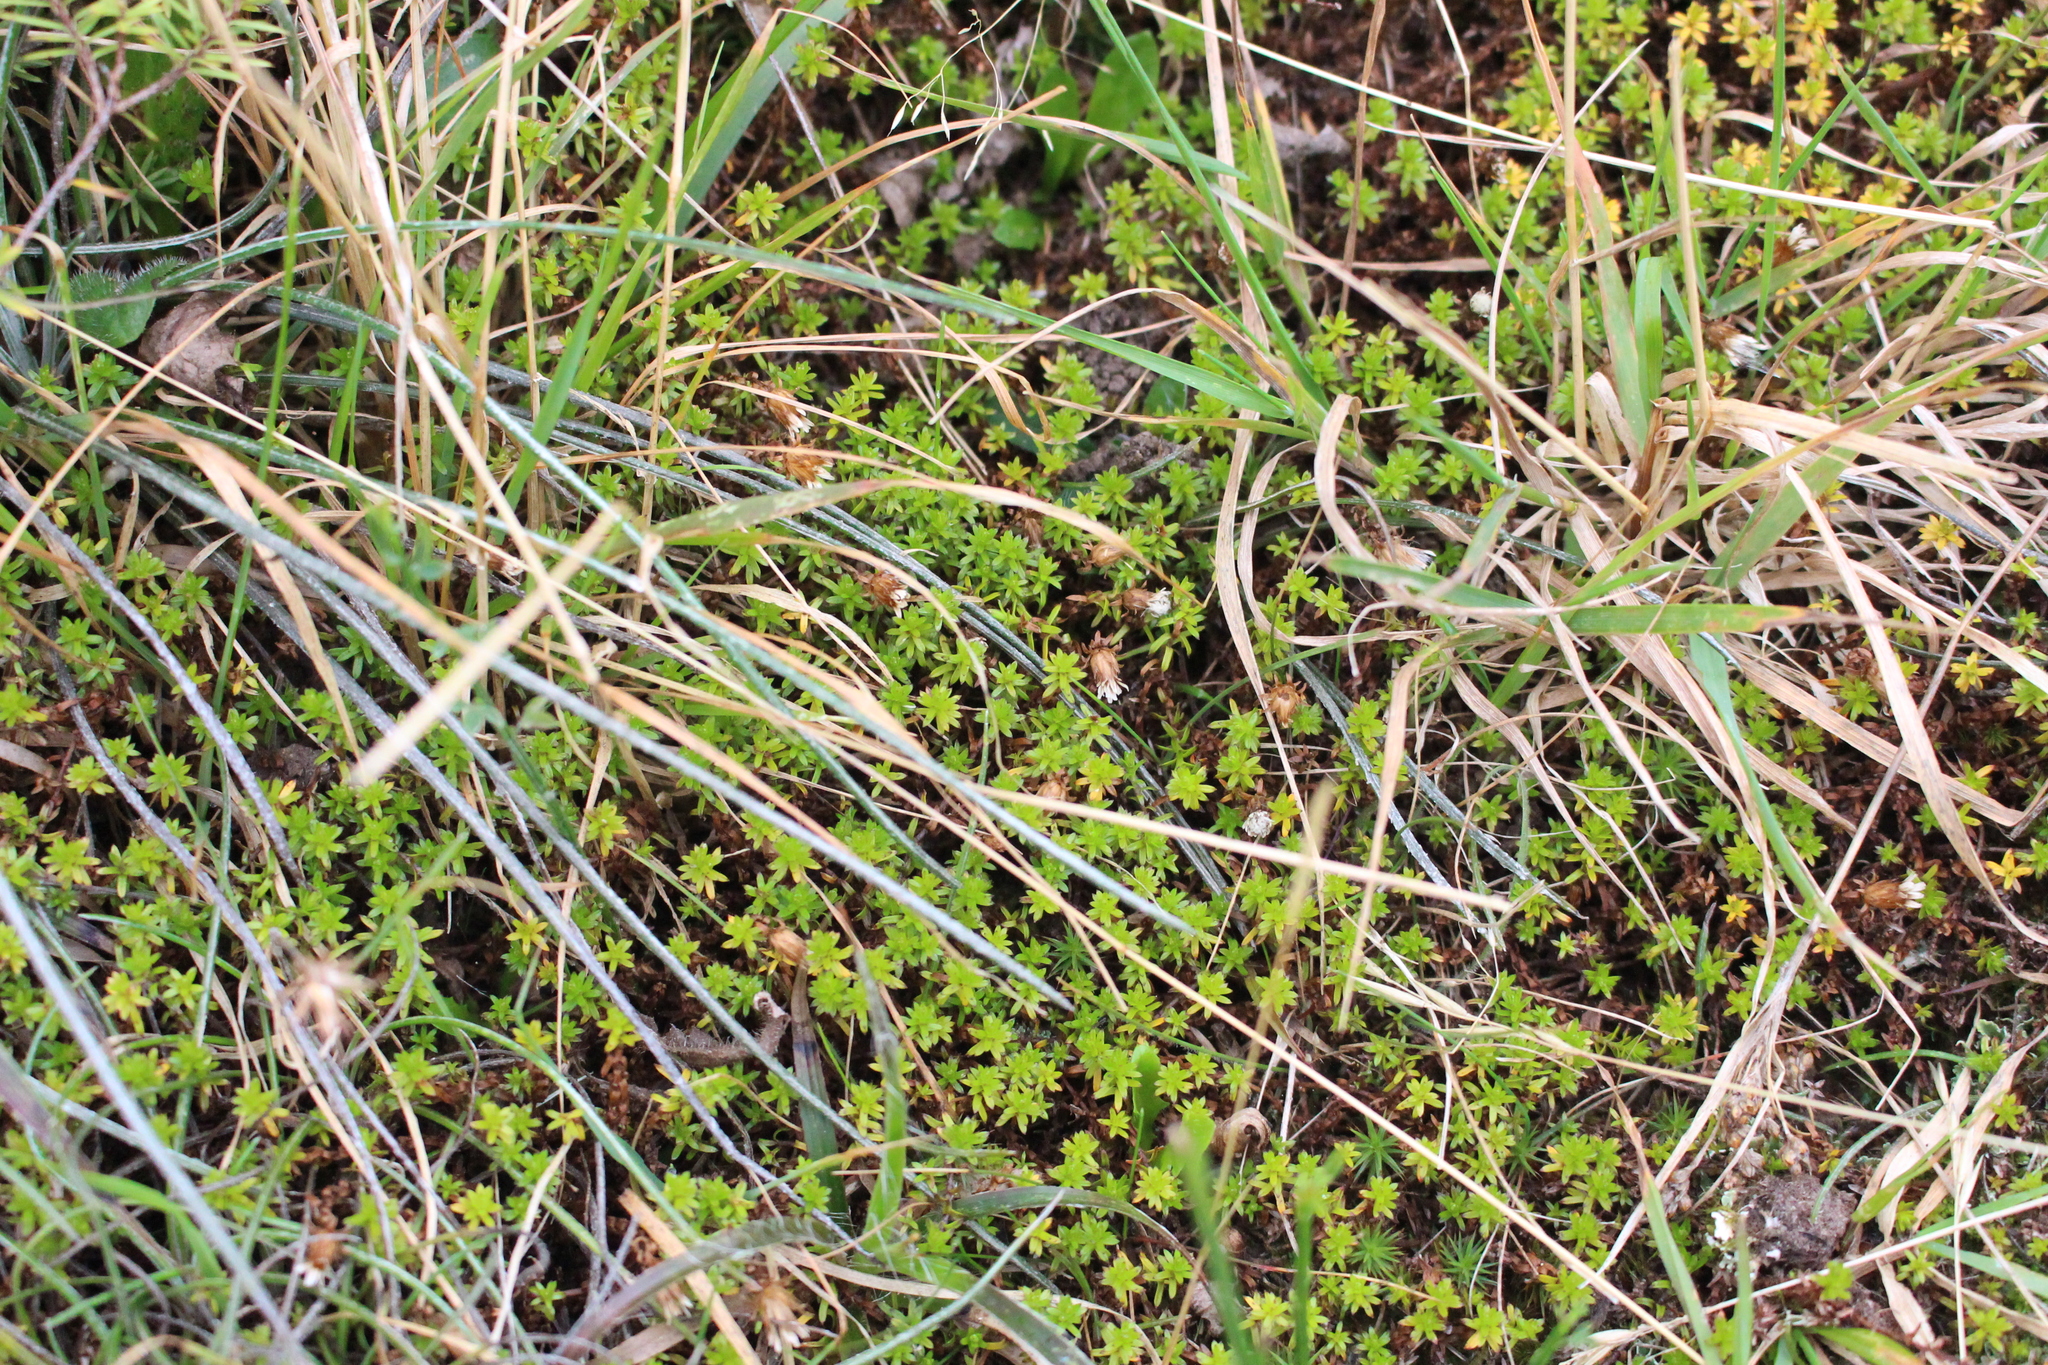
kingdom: Plantae
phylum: Tracheophyta
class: Magnoliopsida
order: Asterales
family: Asteraceae
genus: Raoulia
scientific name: Raoulia glabra
